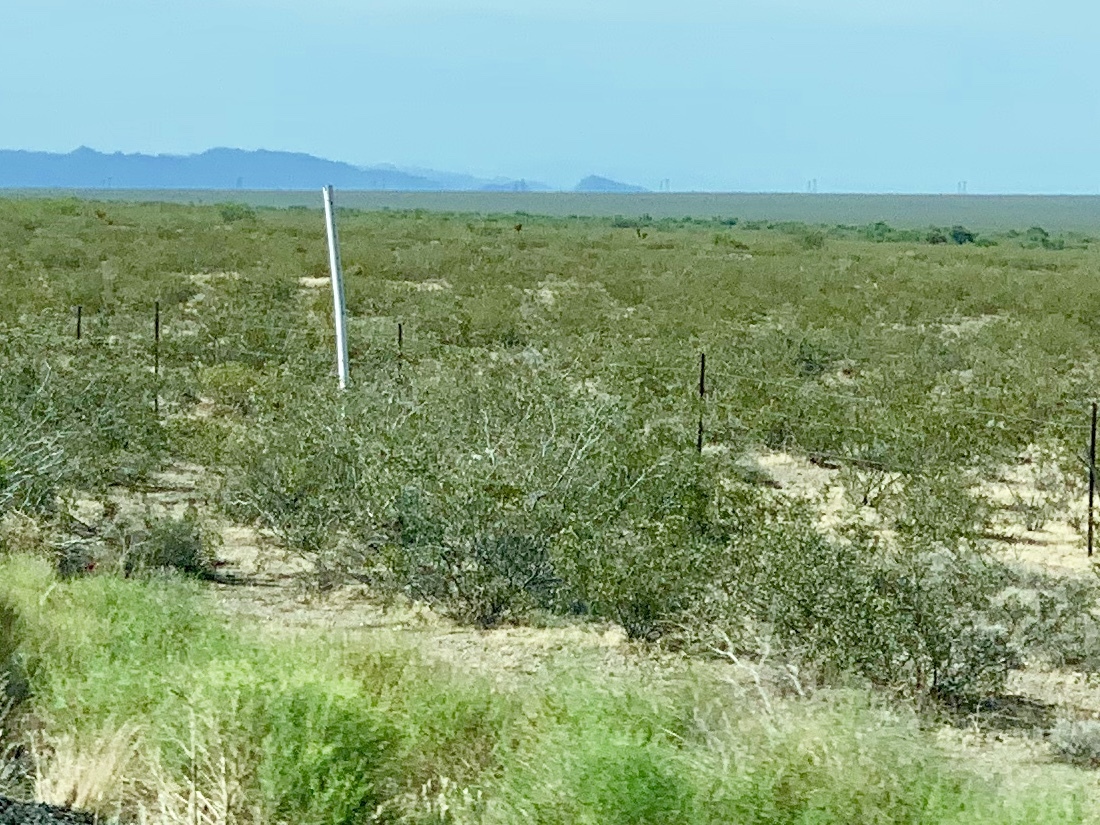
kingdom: Plantae
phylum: Tracheophyta
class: Magnoliopsida
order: Zygophyllales
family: Zygophyllaceae
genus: Larrea
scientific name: Larrea tridentata
